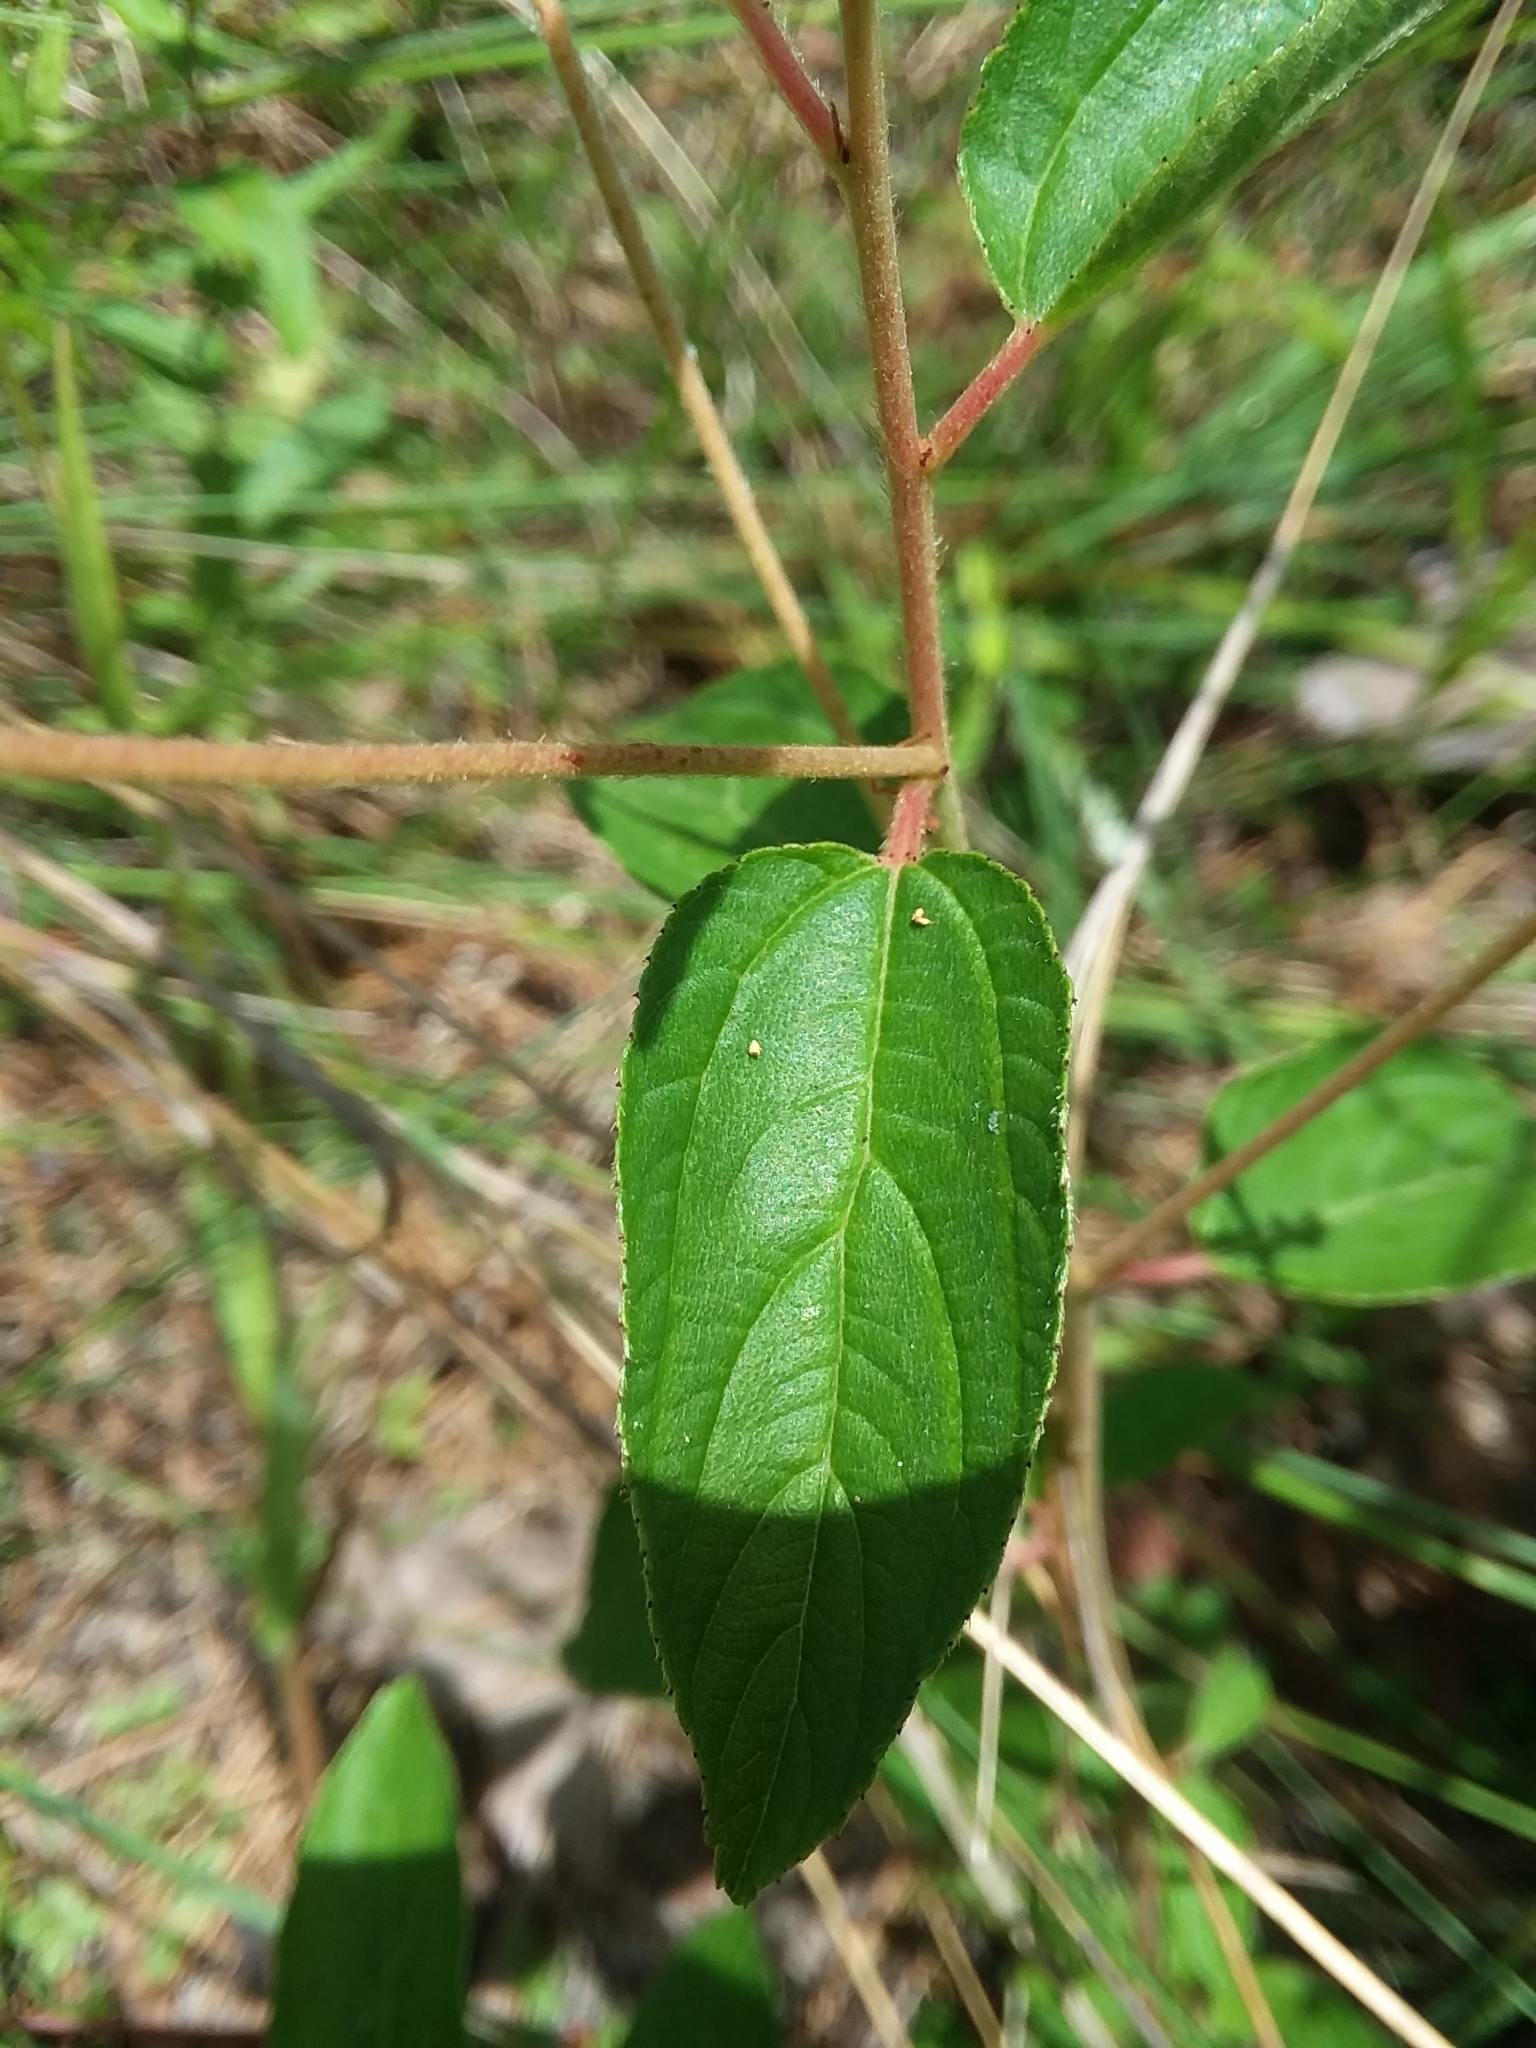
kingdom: Plantae
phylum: Tracheophyta
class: Magnoliopsida
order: Rosales
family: Rhamnaceae
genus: Ceanothus
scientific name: Ceanothus americanus
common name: Redroot
